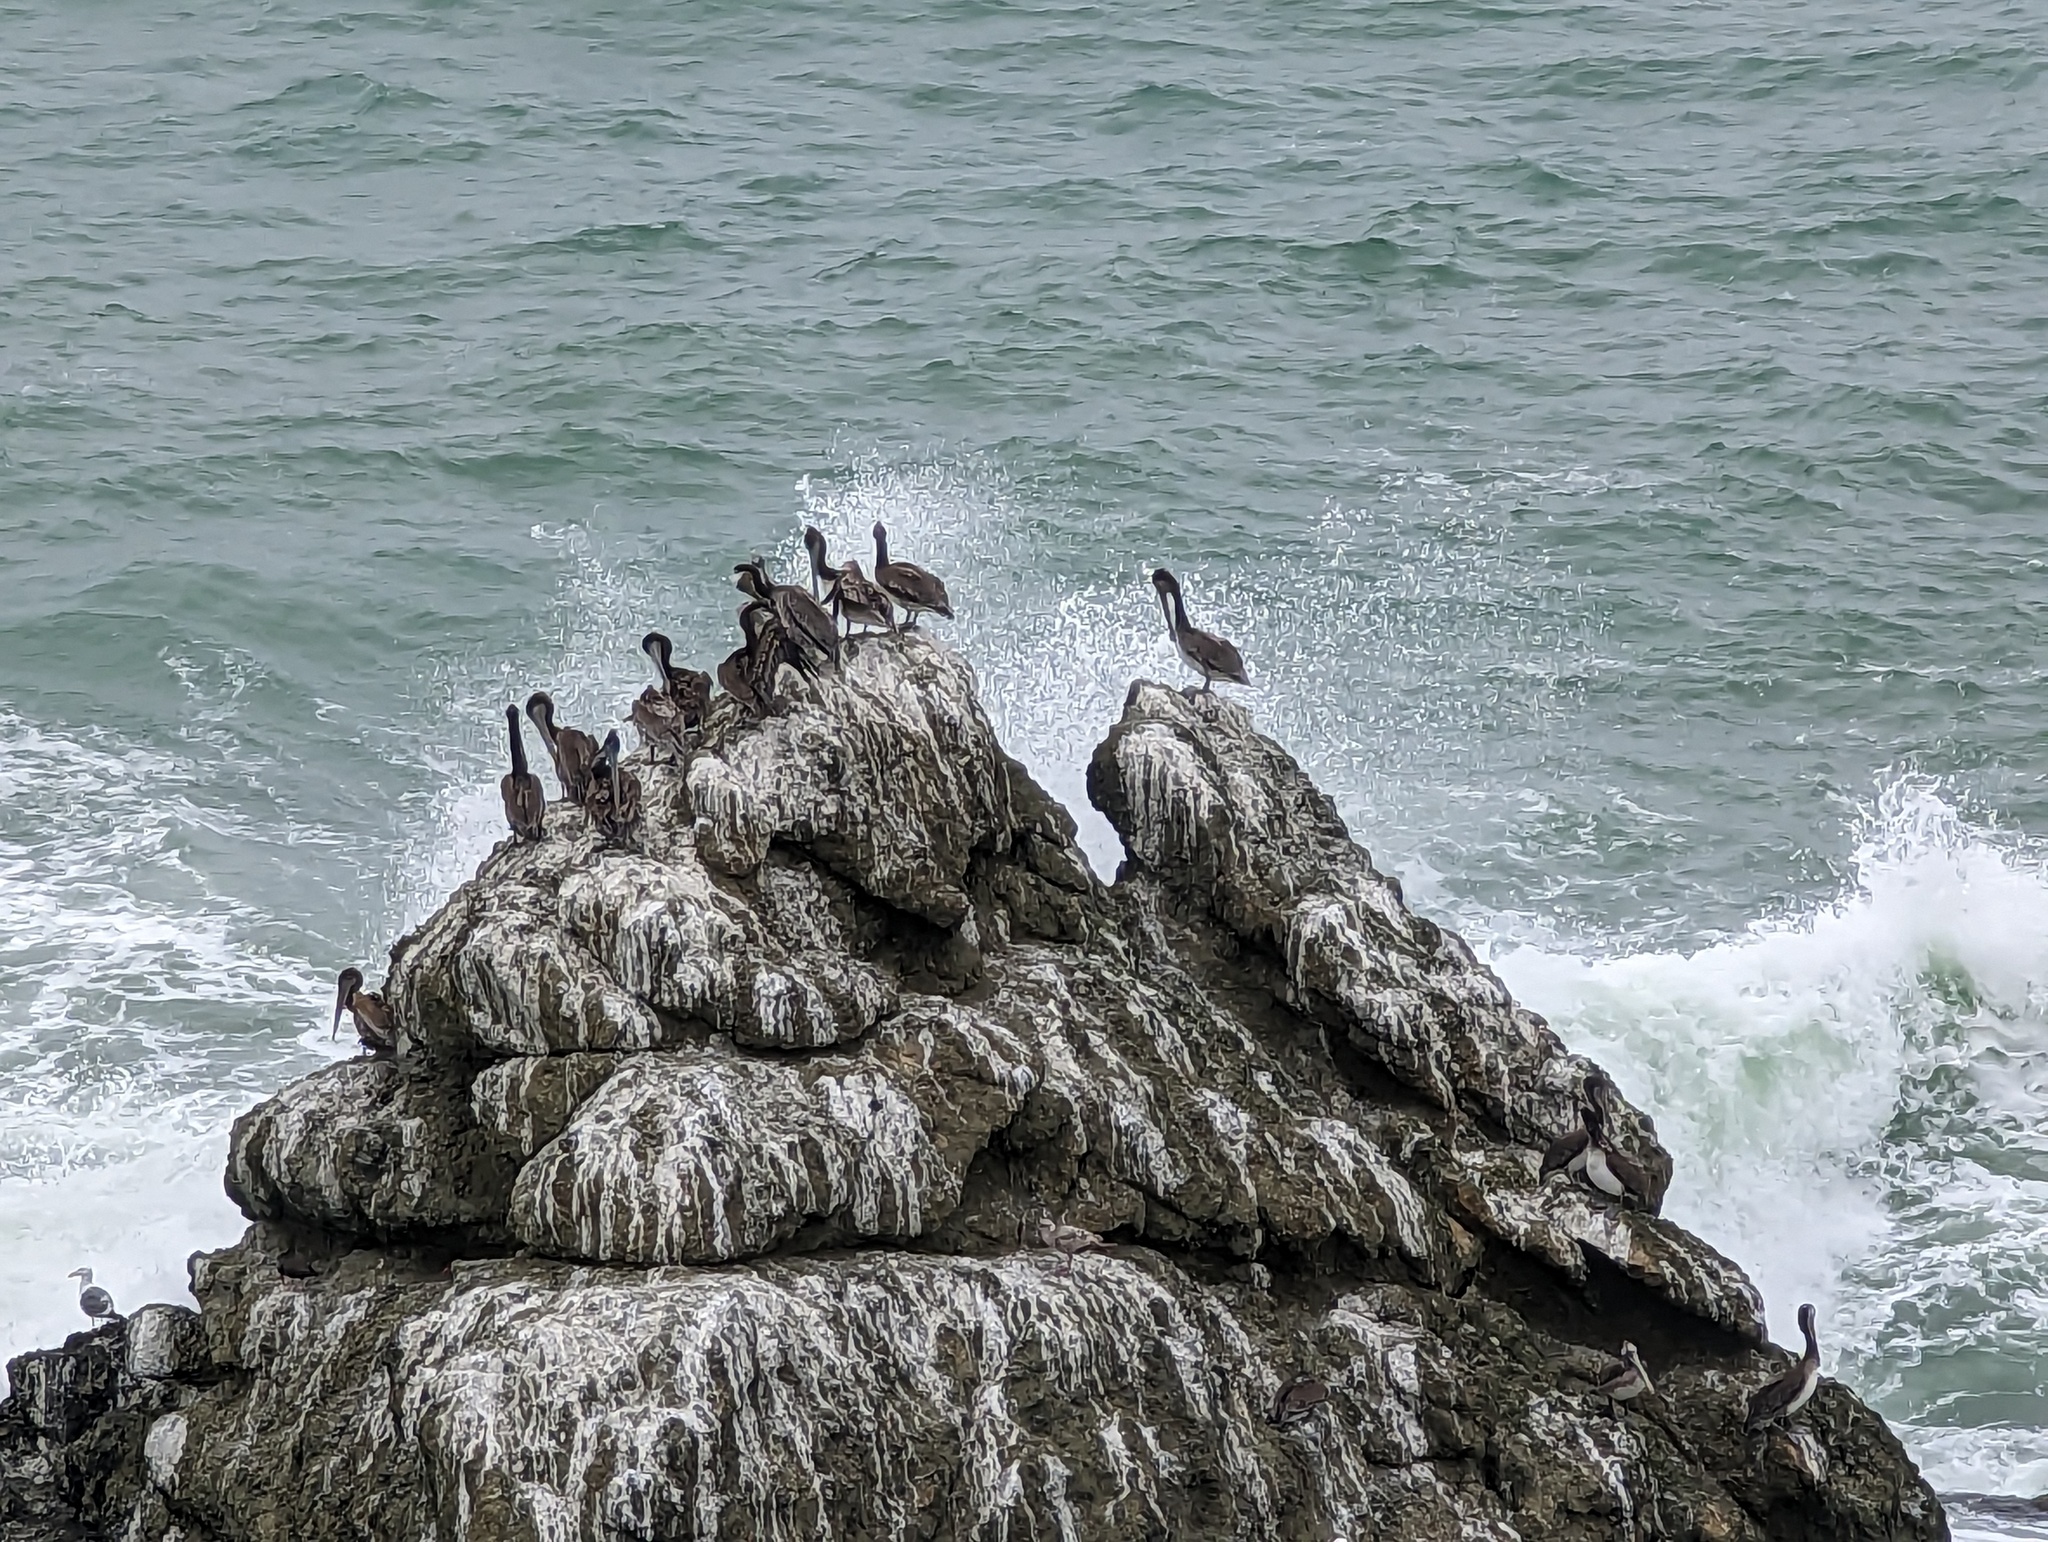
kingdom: Animalia
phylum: Chordata
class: Aves
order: Pelecaniformes
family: Pelecanidae
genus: Pelecanus
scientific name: Pelecanus occidentalis
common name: Brown pelican
